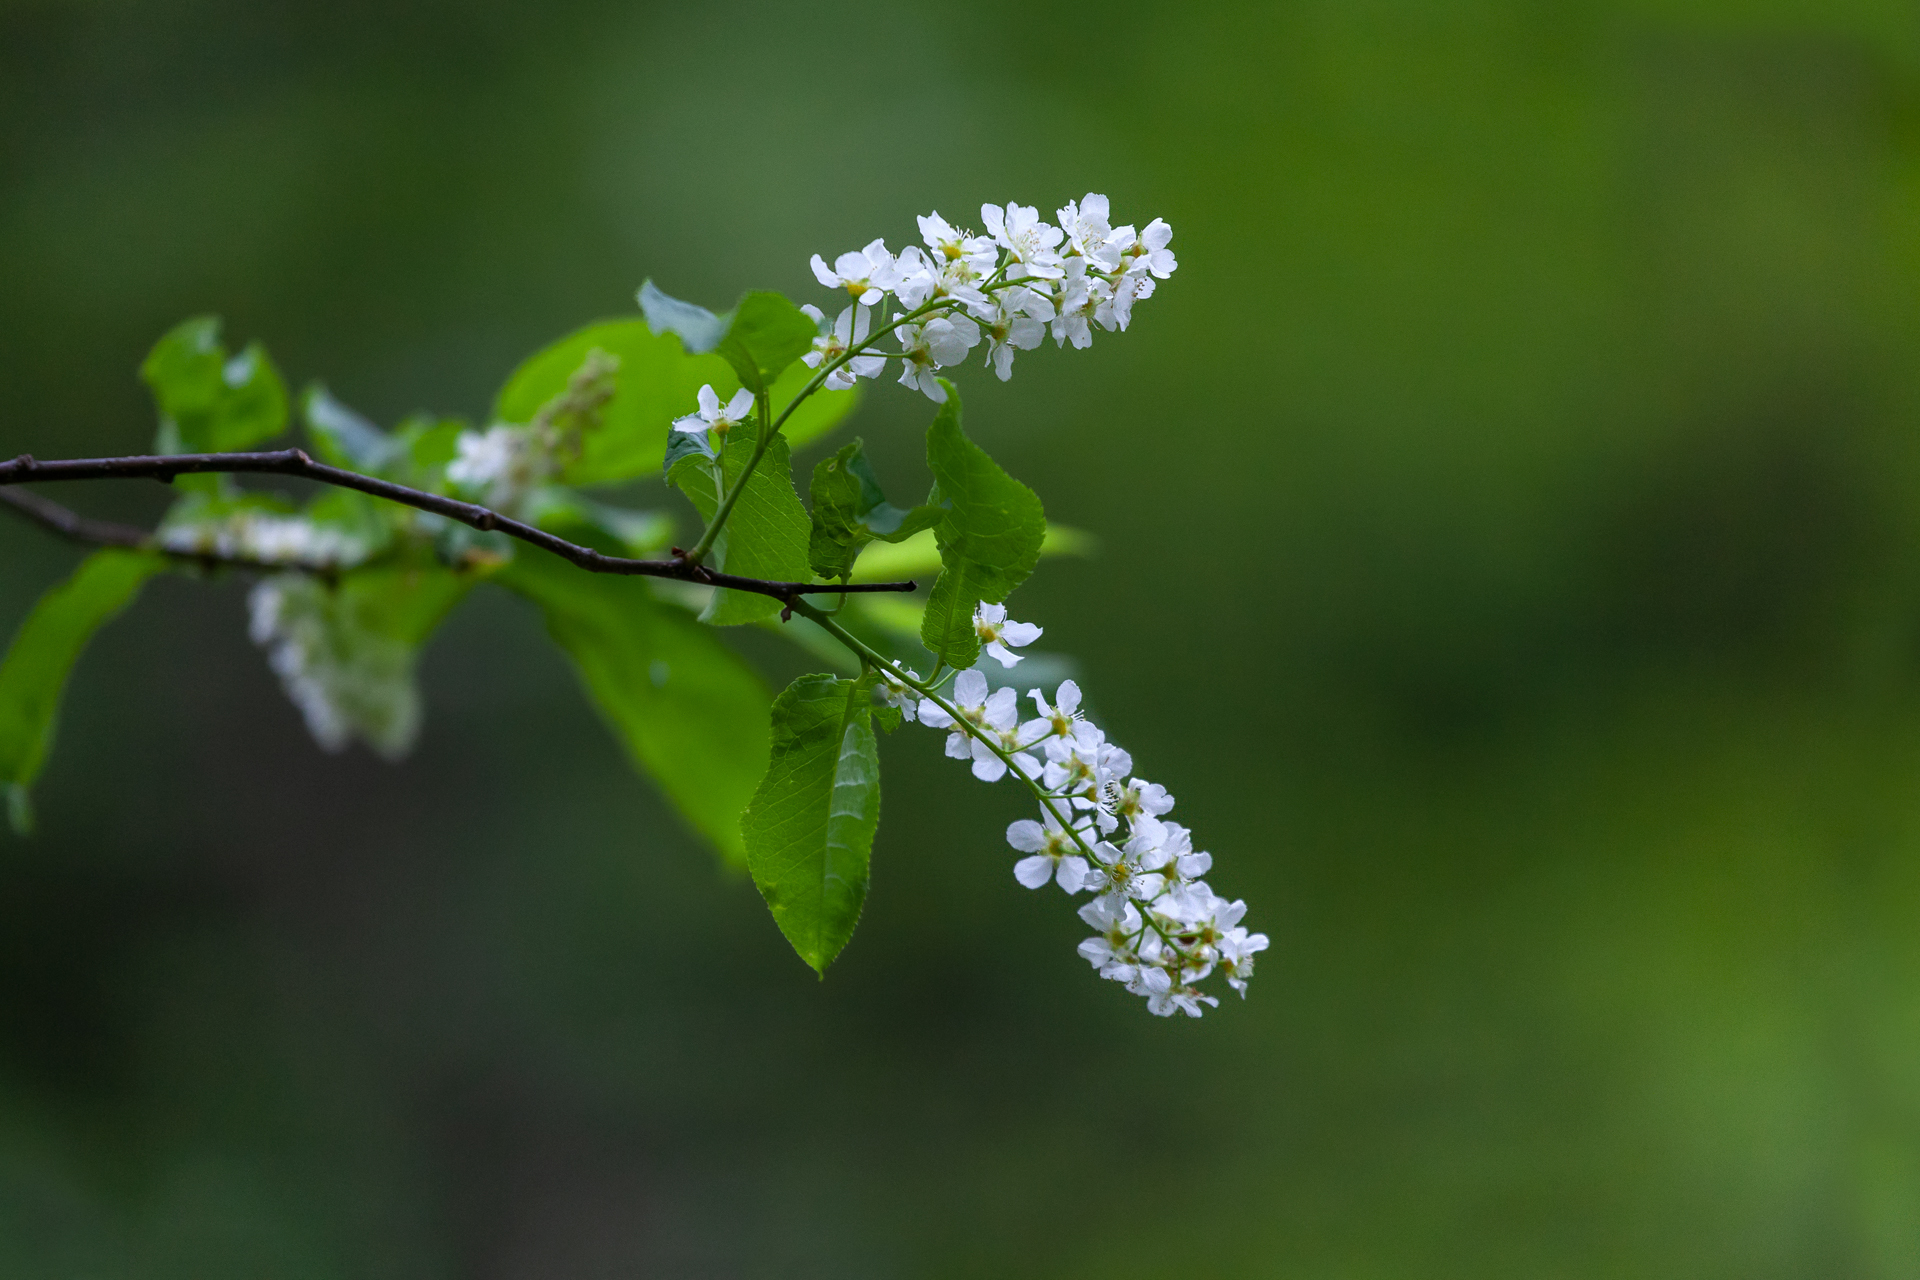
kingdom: Plantae
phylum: Tracheophyta
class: Magnoliopsida
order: Rosales
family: Rosaceae
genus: Prunus
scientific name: Prunus padus
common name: Bird cherry
